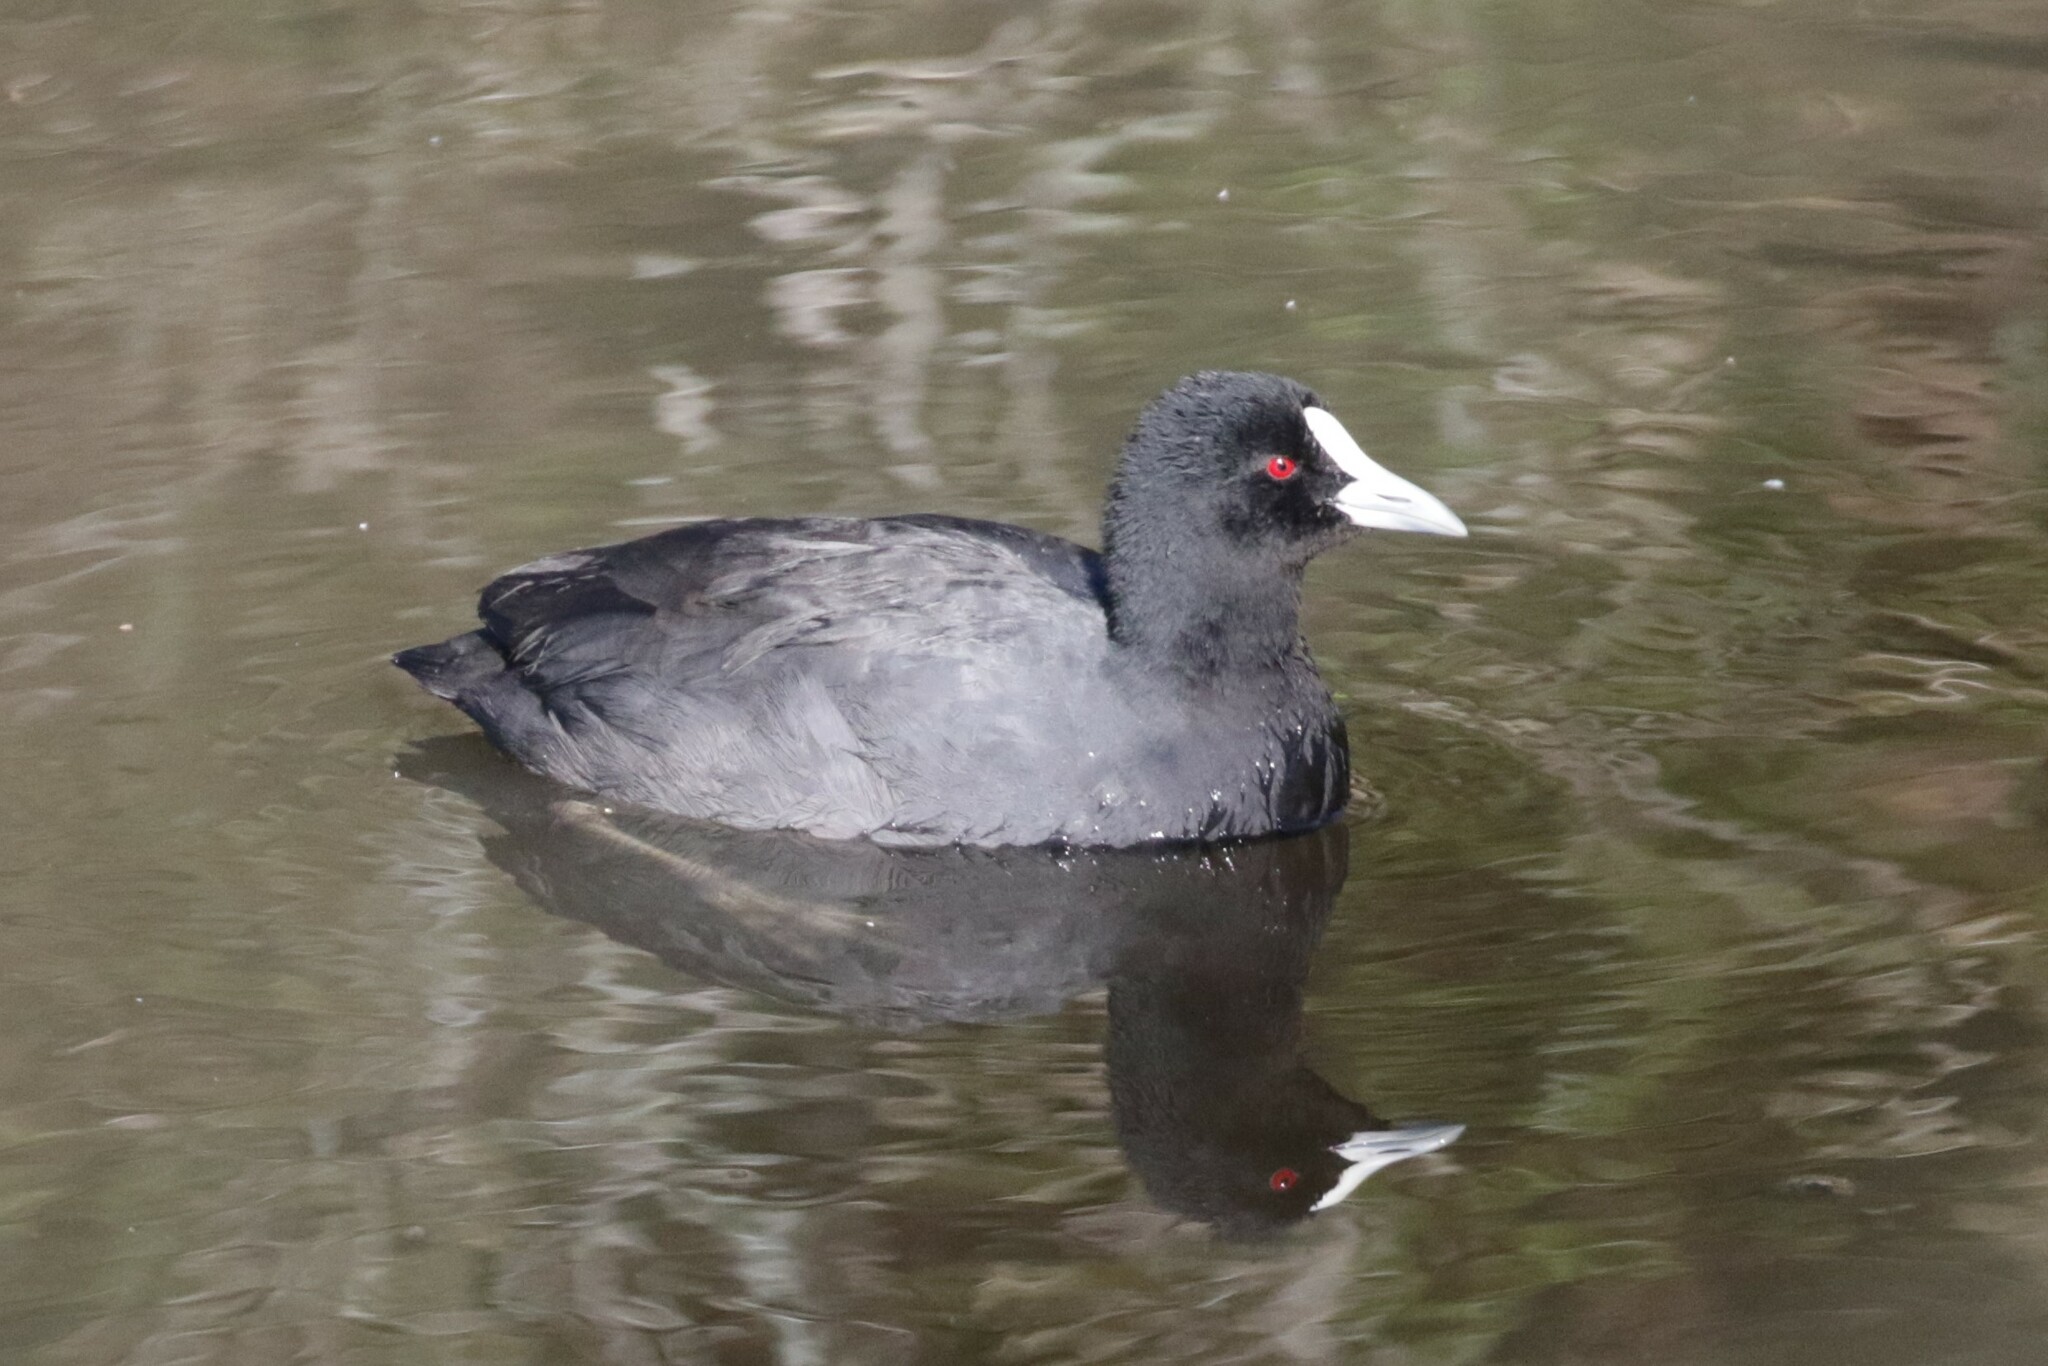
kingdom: Animalia
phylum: Chordata
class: Aves
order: Gruiformes
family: Rallidae
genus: Fulica
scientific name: Fulica atra
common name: Eurasian coot
